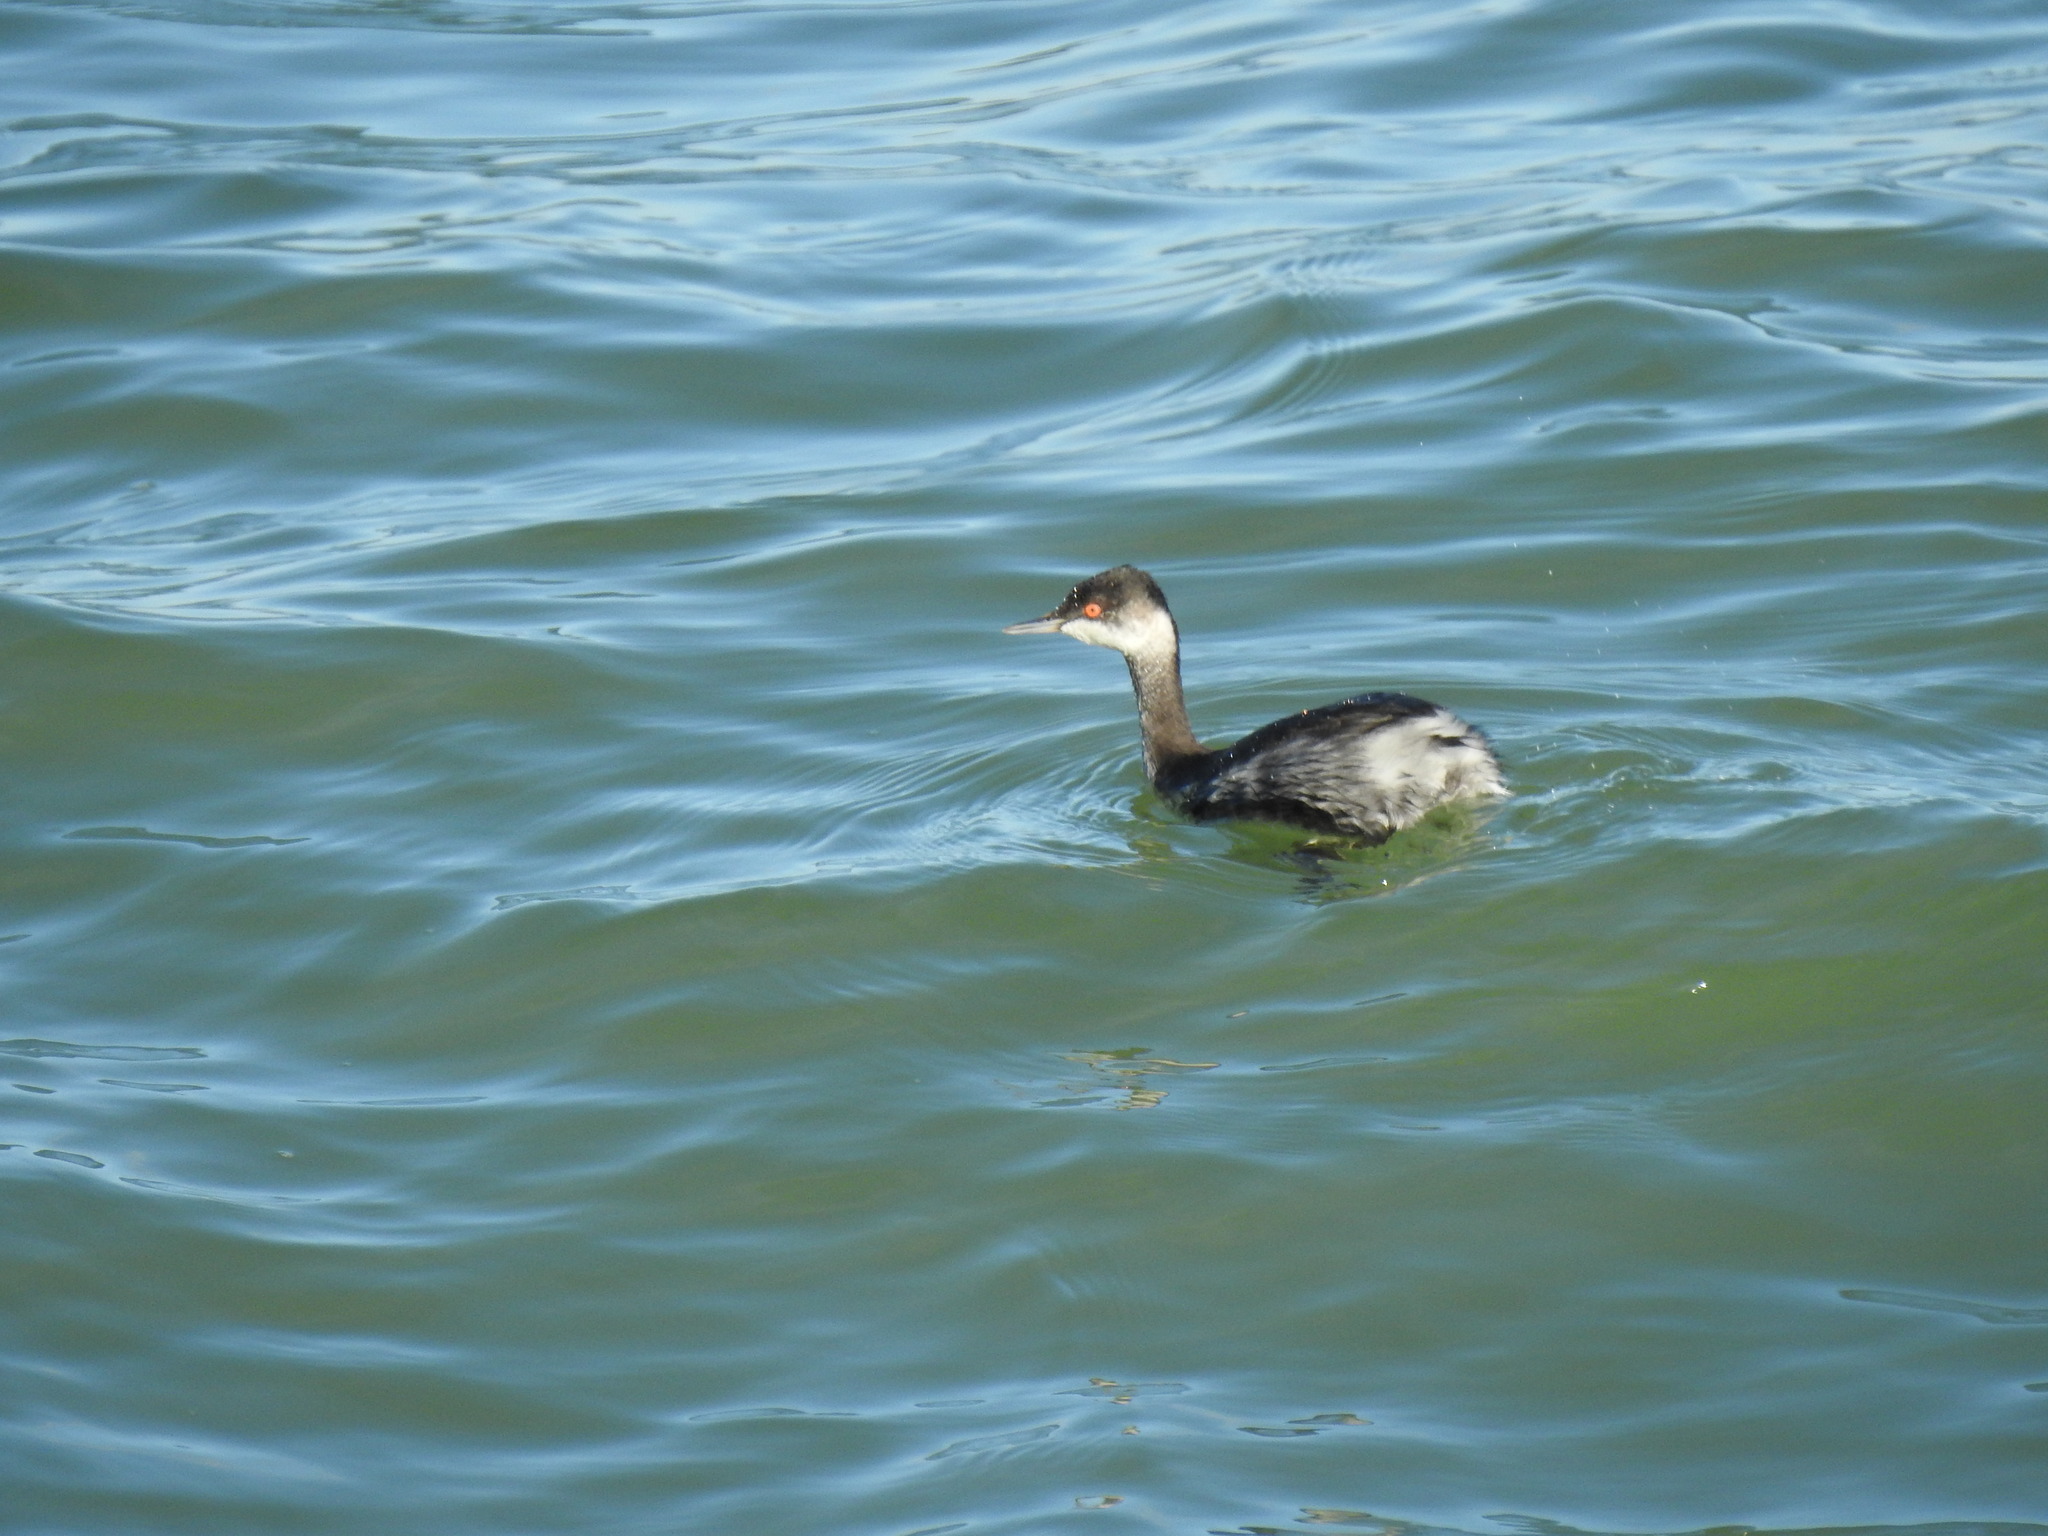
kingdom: Animalia
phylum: Chordata
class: Aves
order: Podicipediformes
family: Podicipedidae
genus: Podiceps
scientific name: Podiceps nigricollis
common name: Black-necked grebe
